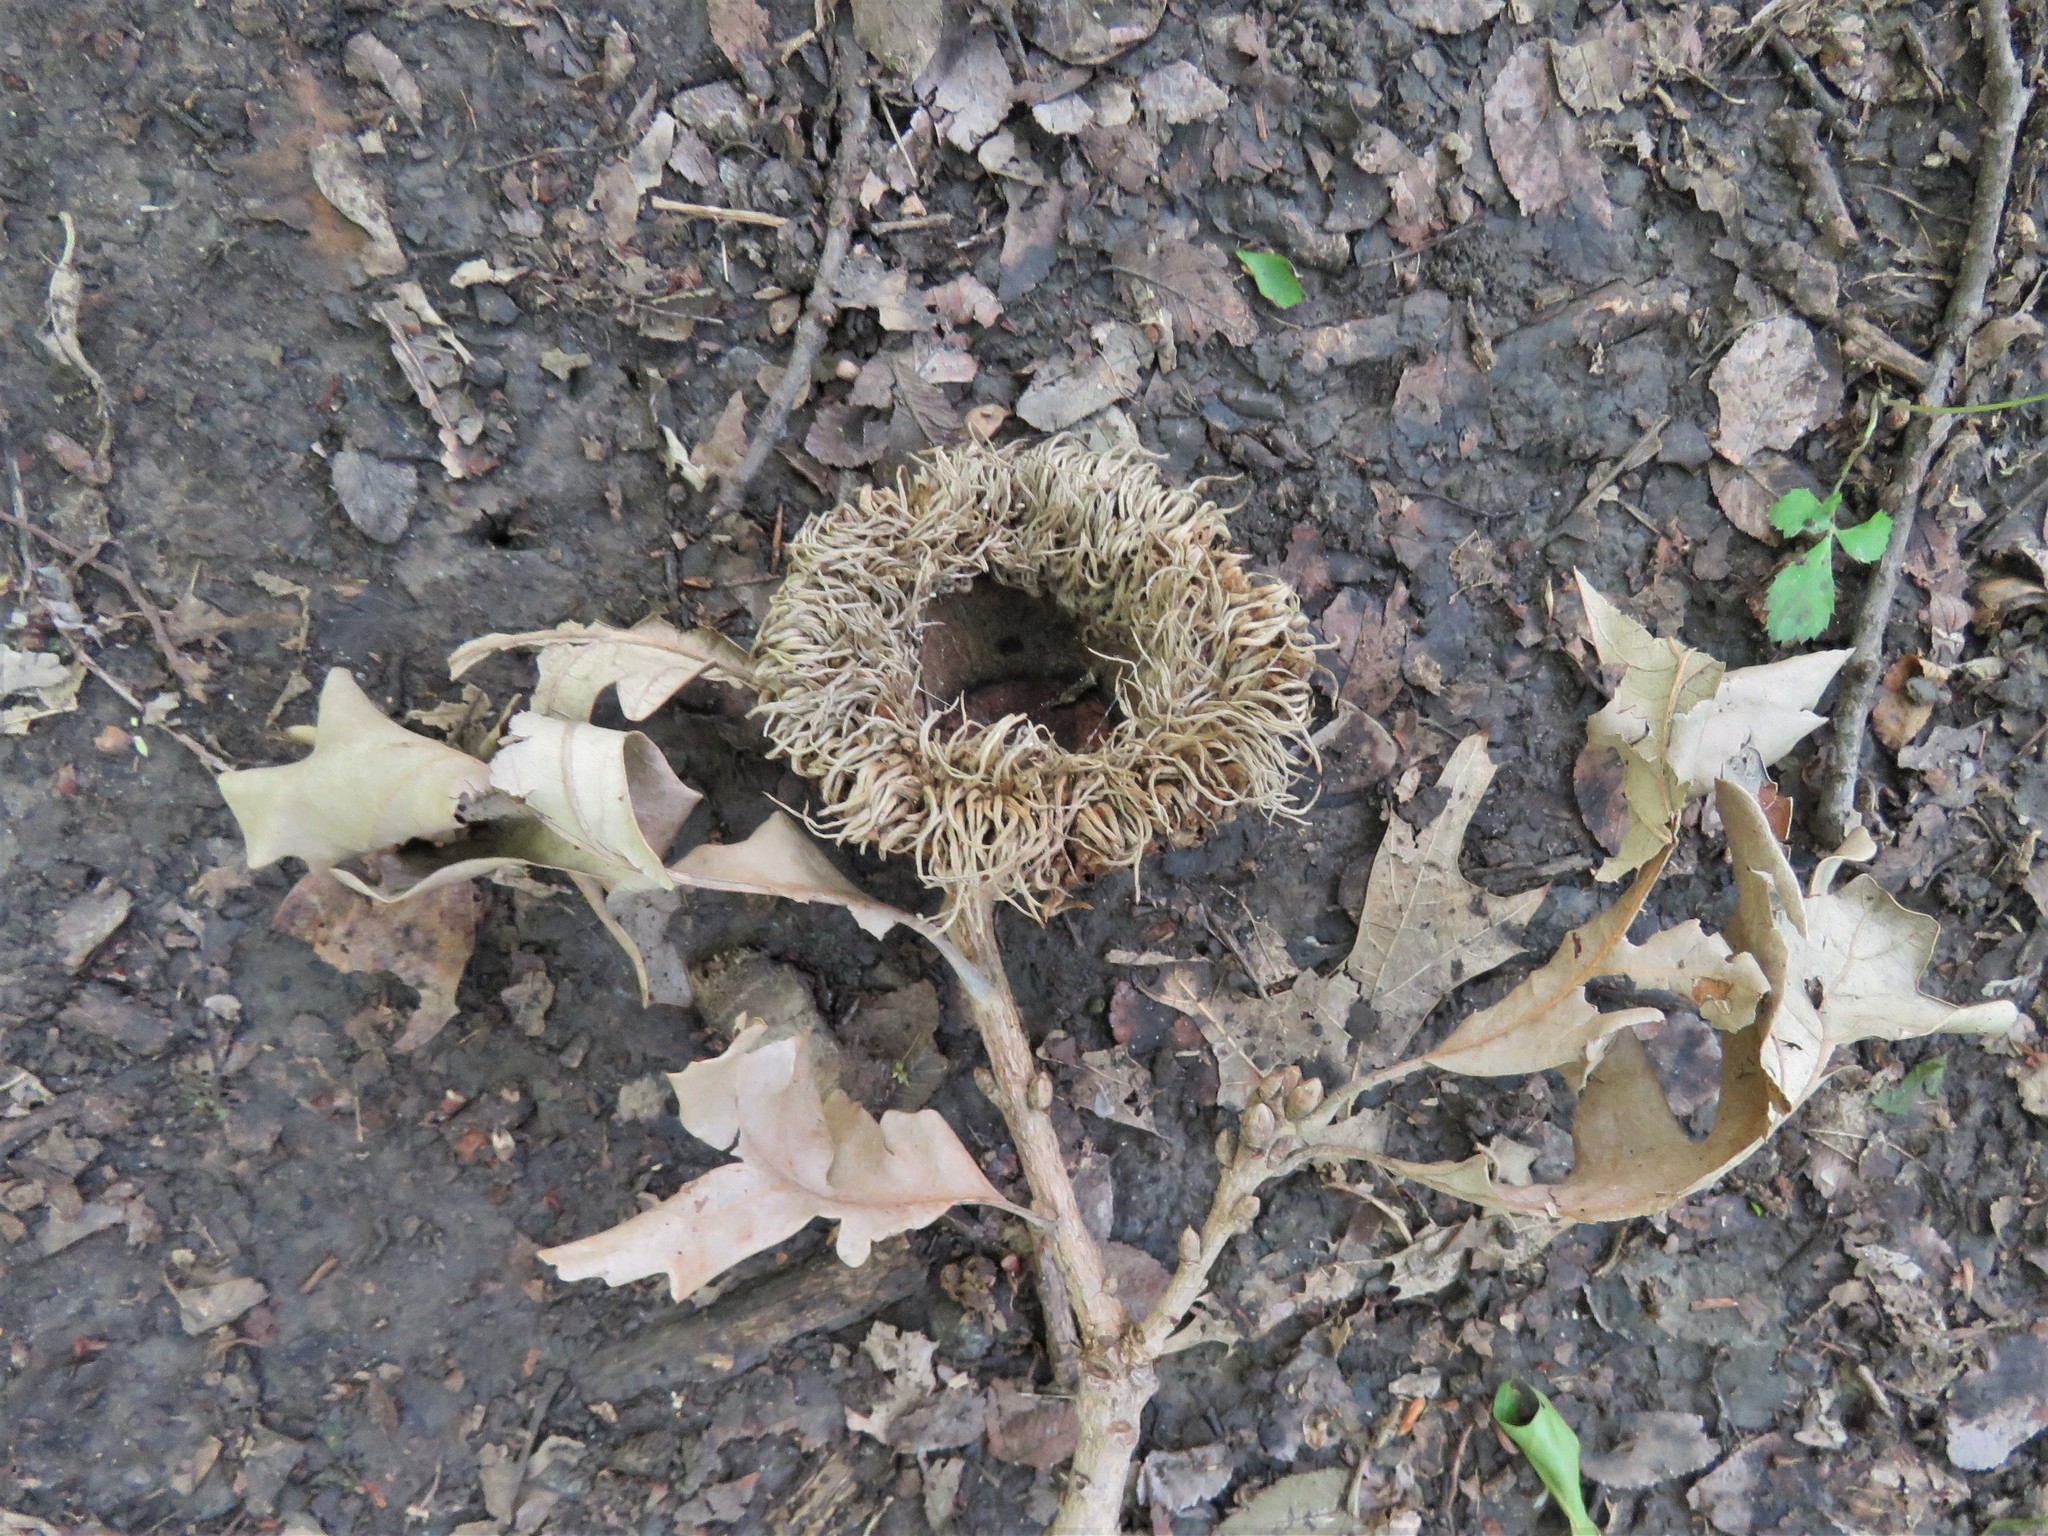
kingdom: Plantae
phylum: Tracheophyta
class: Magnoliopsida
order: Fagales
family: Fagaceae
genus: Quercus
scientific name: Quercus macrocarpa
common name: Bur oak
